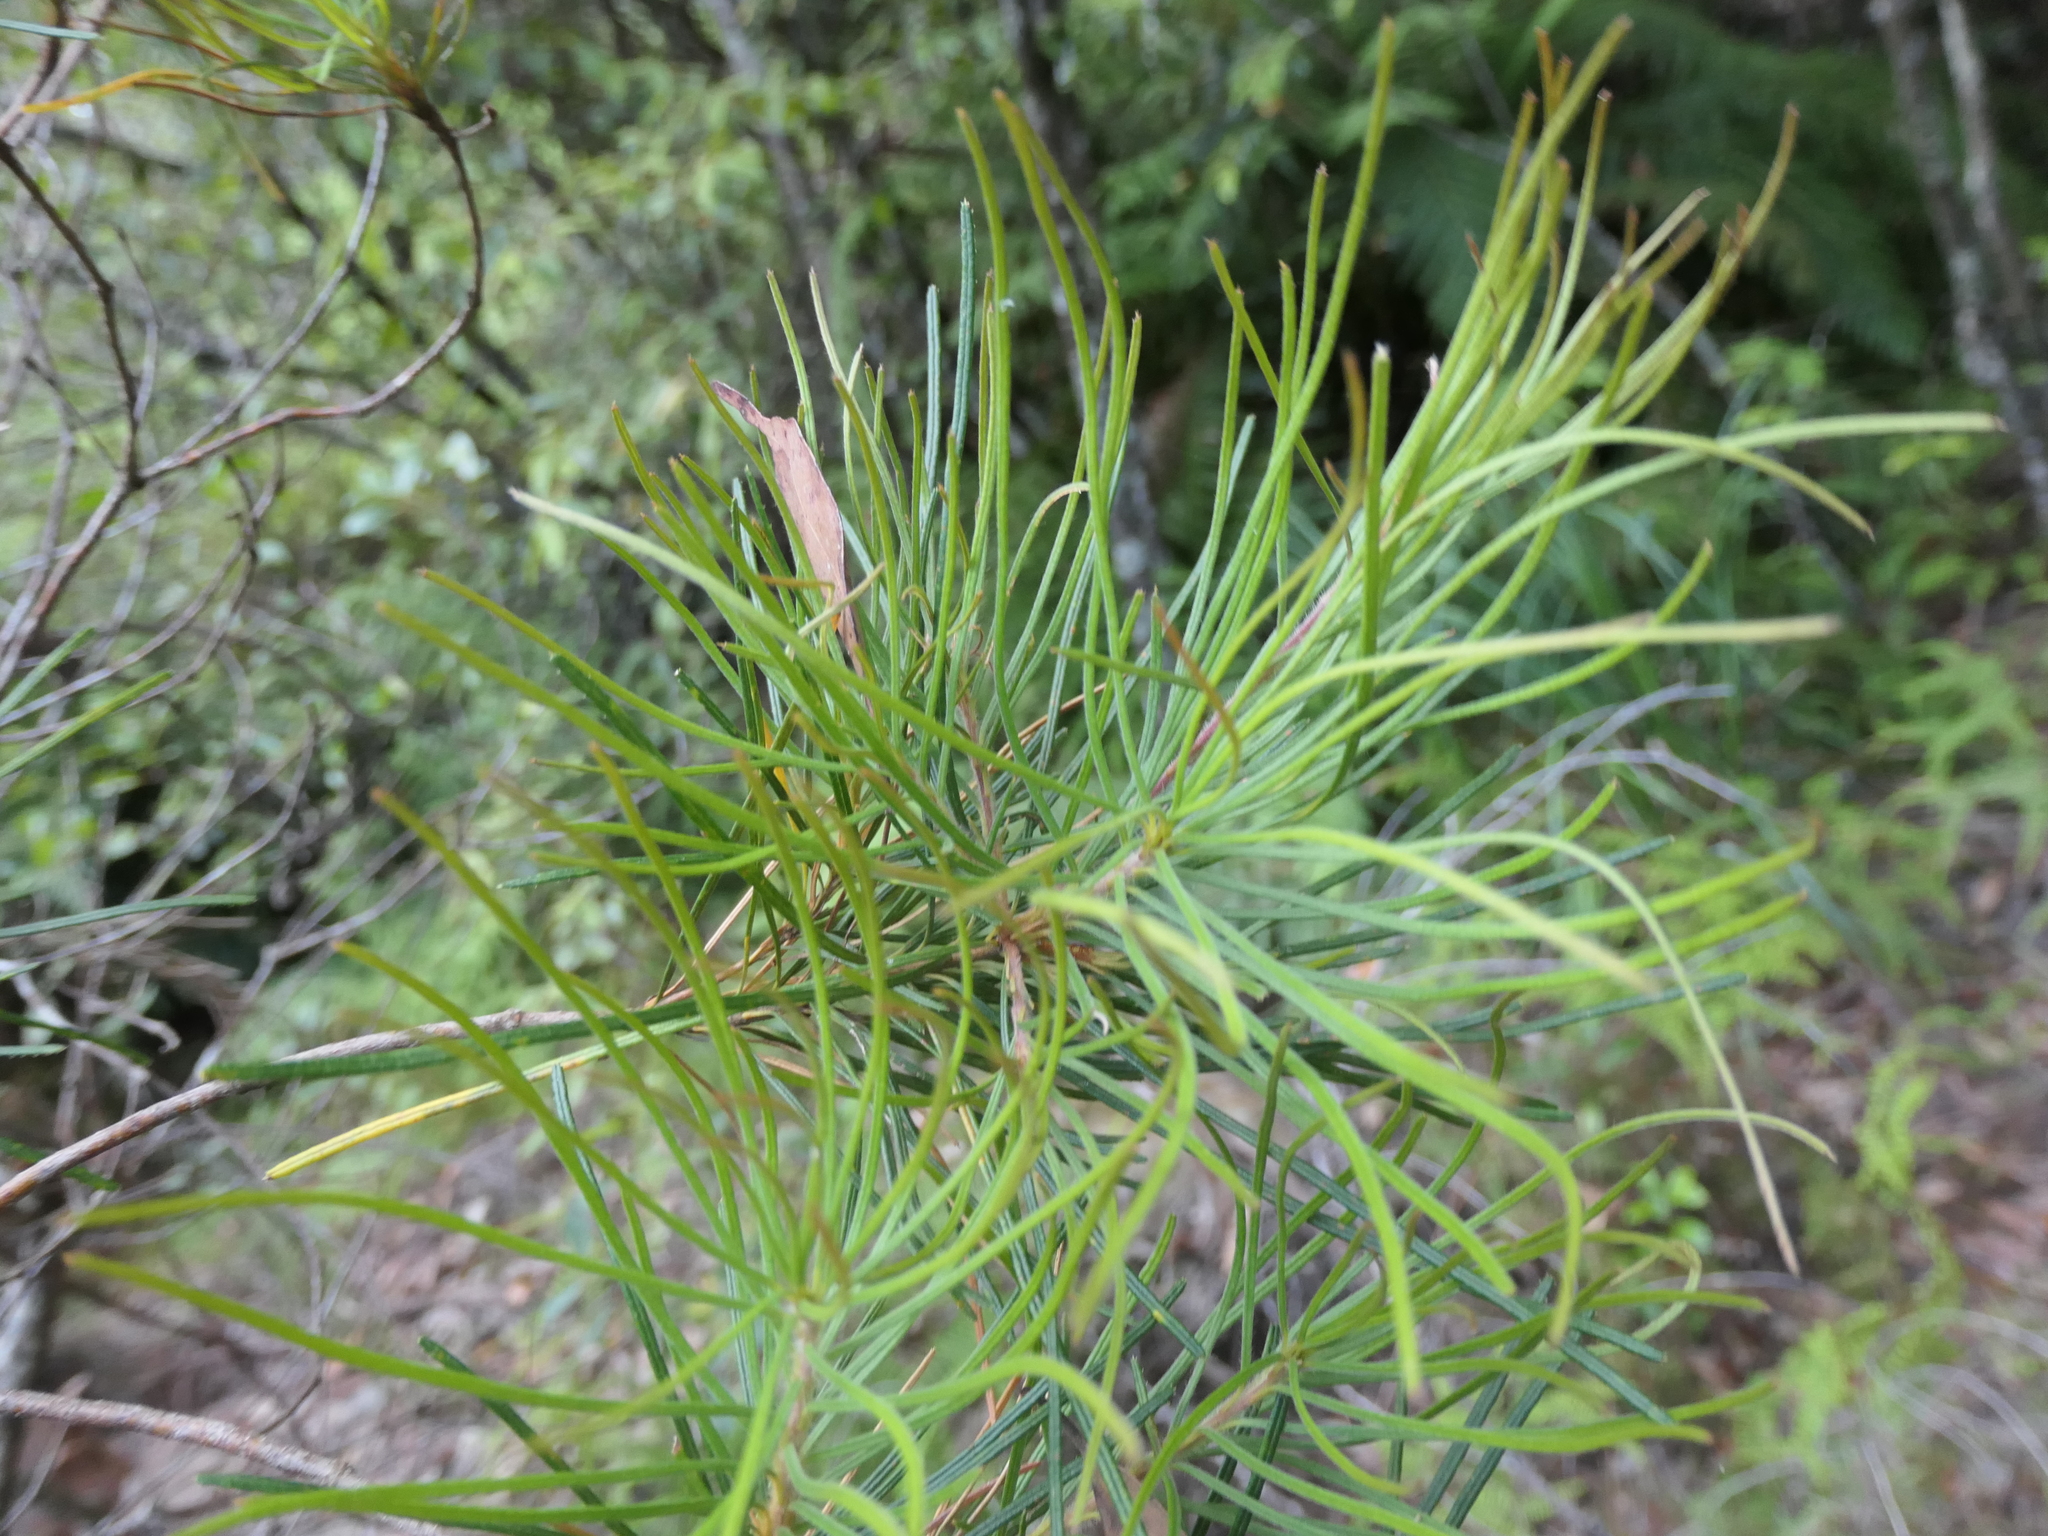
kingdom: Plantae
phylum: Tracheophyta
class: Magnoliopsida
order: Proteales
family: Proteaceae
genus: Banksia
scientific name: Banksia spinulosa
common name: Hairpin banksia
